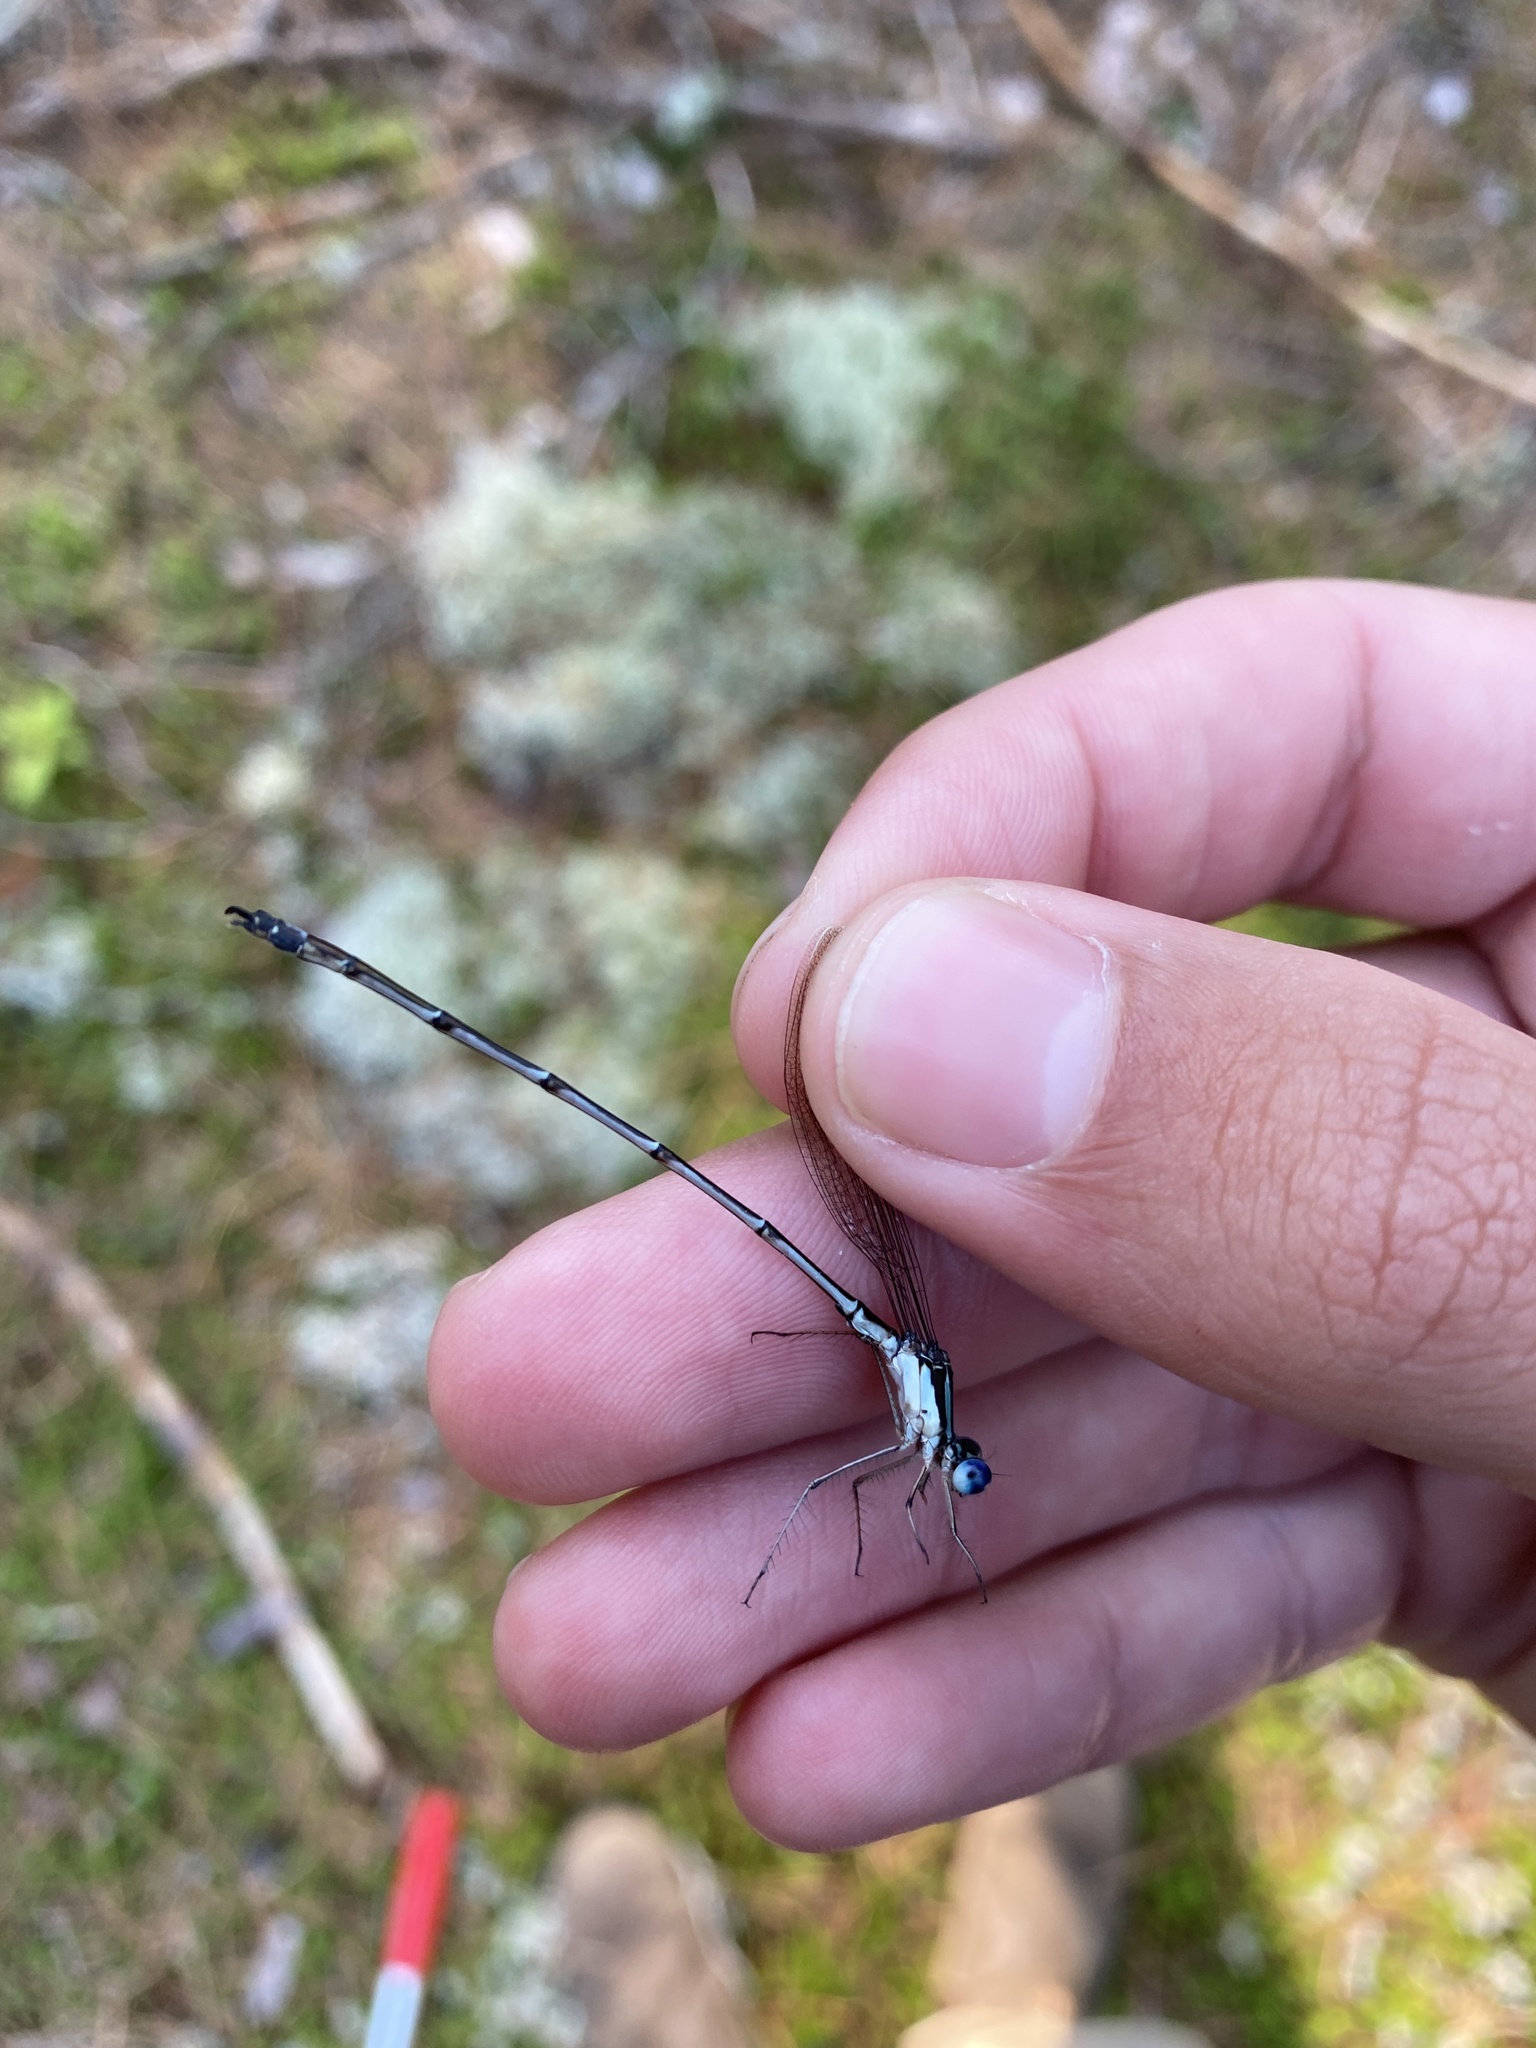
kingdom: Animalia
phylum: Arthropoda
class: Insecta
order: Odonata
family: Lestidae
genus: Lestes
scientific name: Lestes rectangularis
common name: Slender spreadwing
